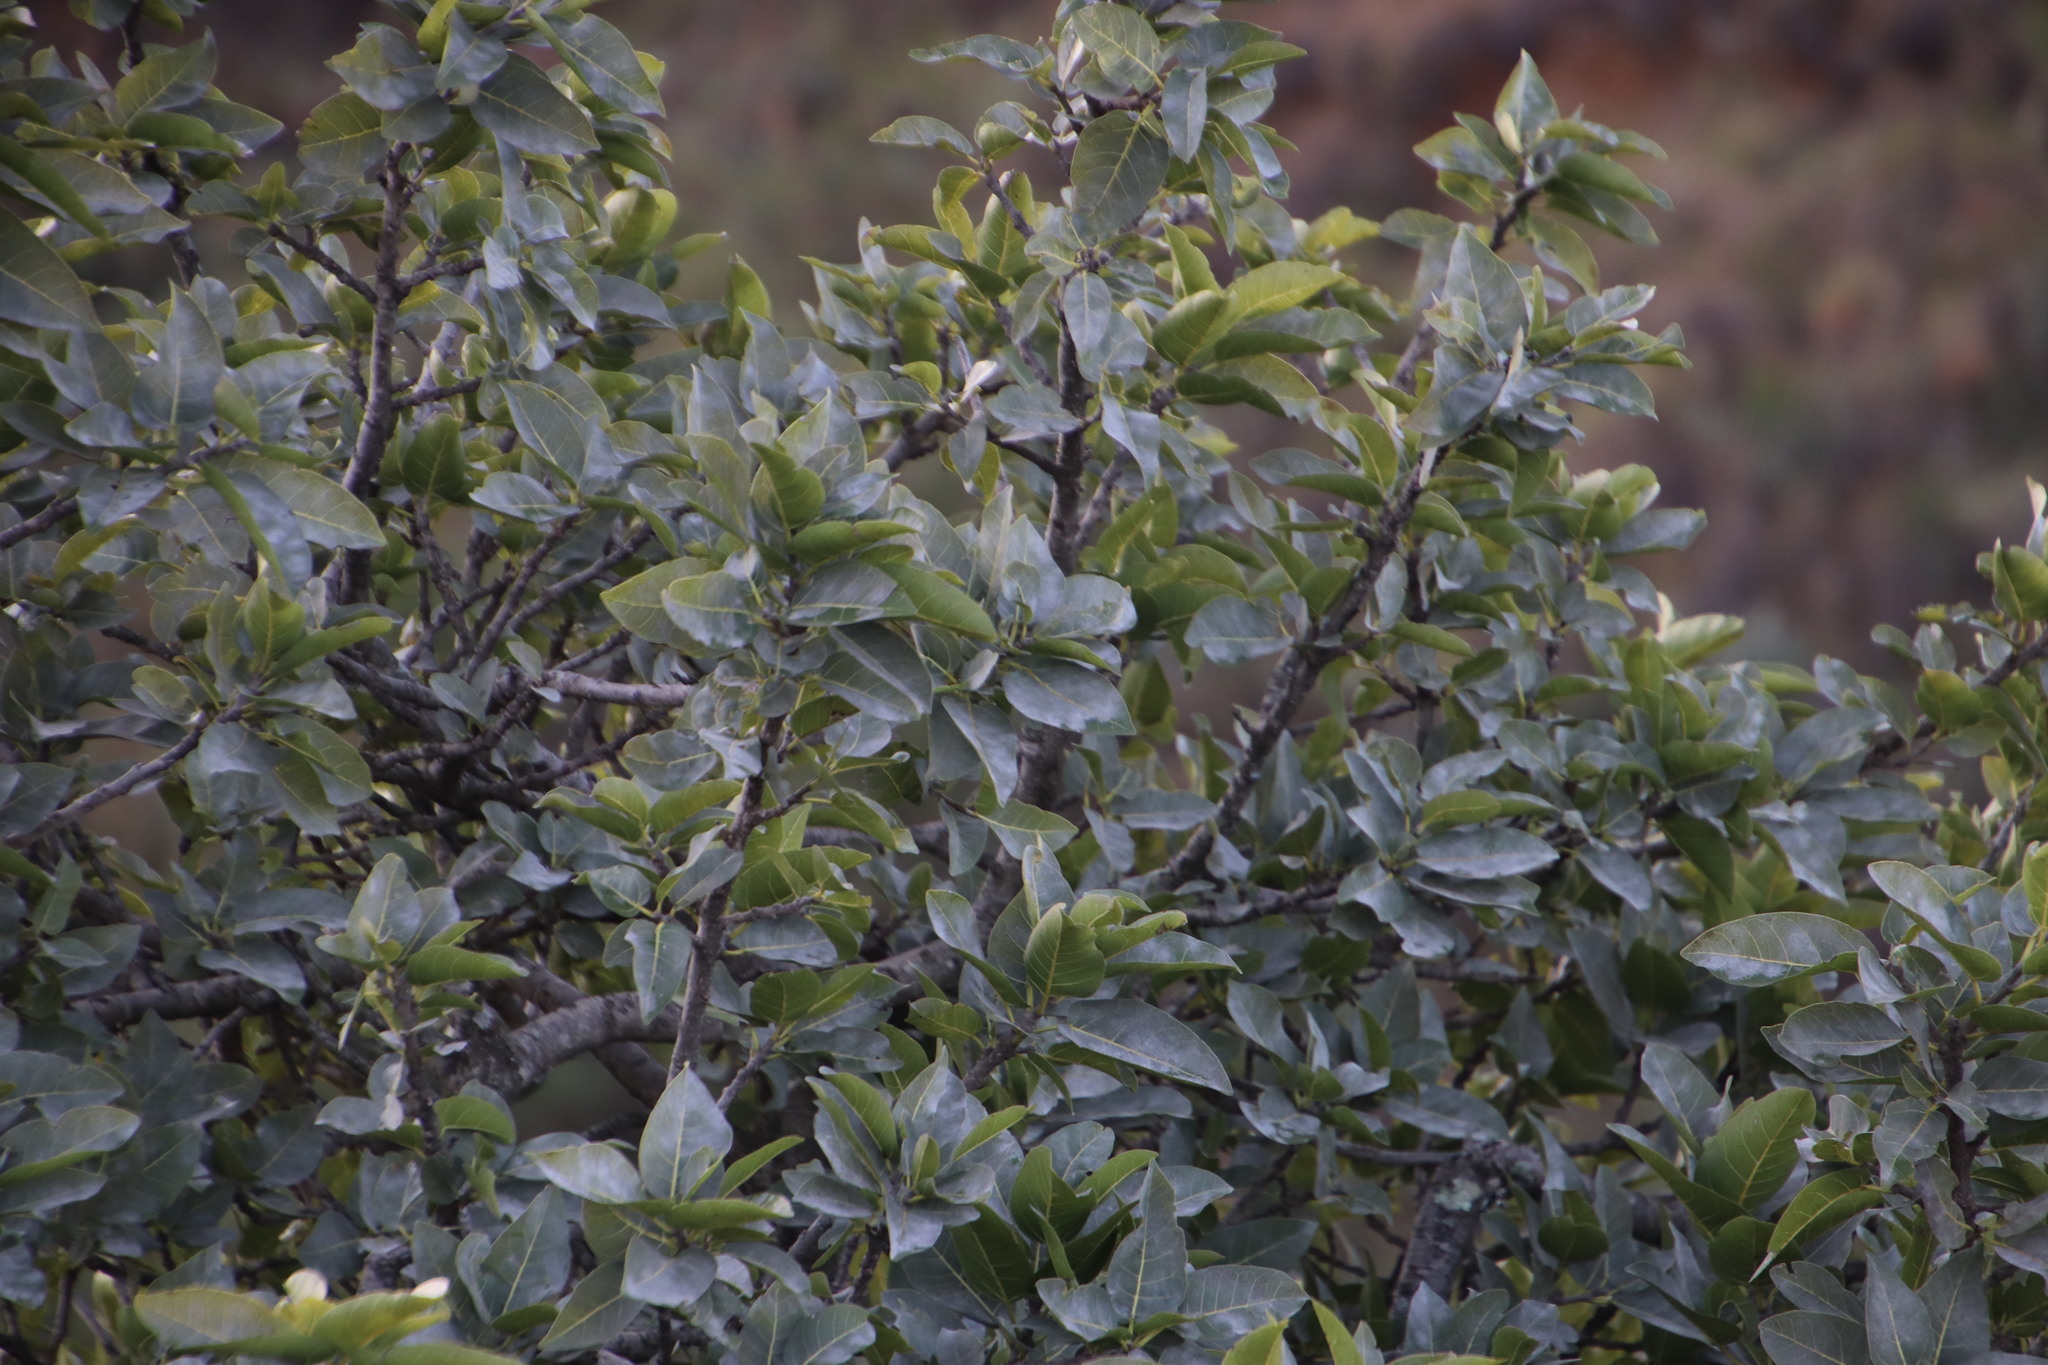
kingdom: Plantae
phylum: Tracheophyta
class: Magnoliopsida
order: Rosales
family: Moraceae
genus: Ficus
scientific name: Ficus ingens
